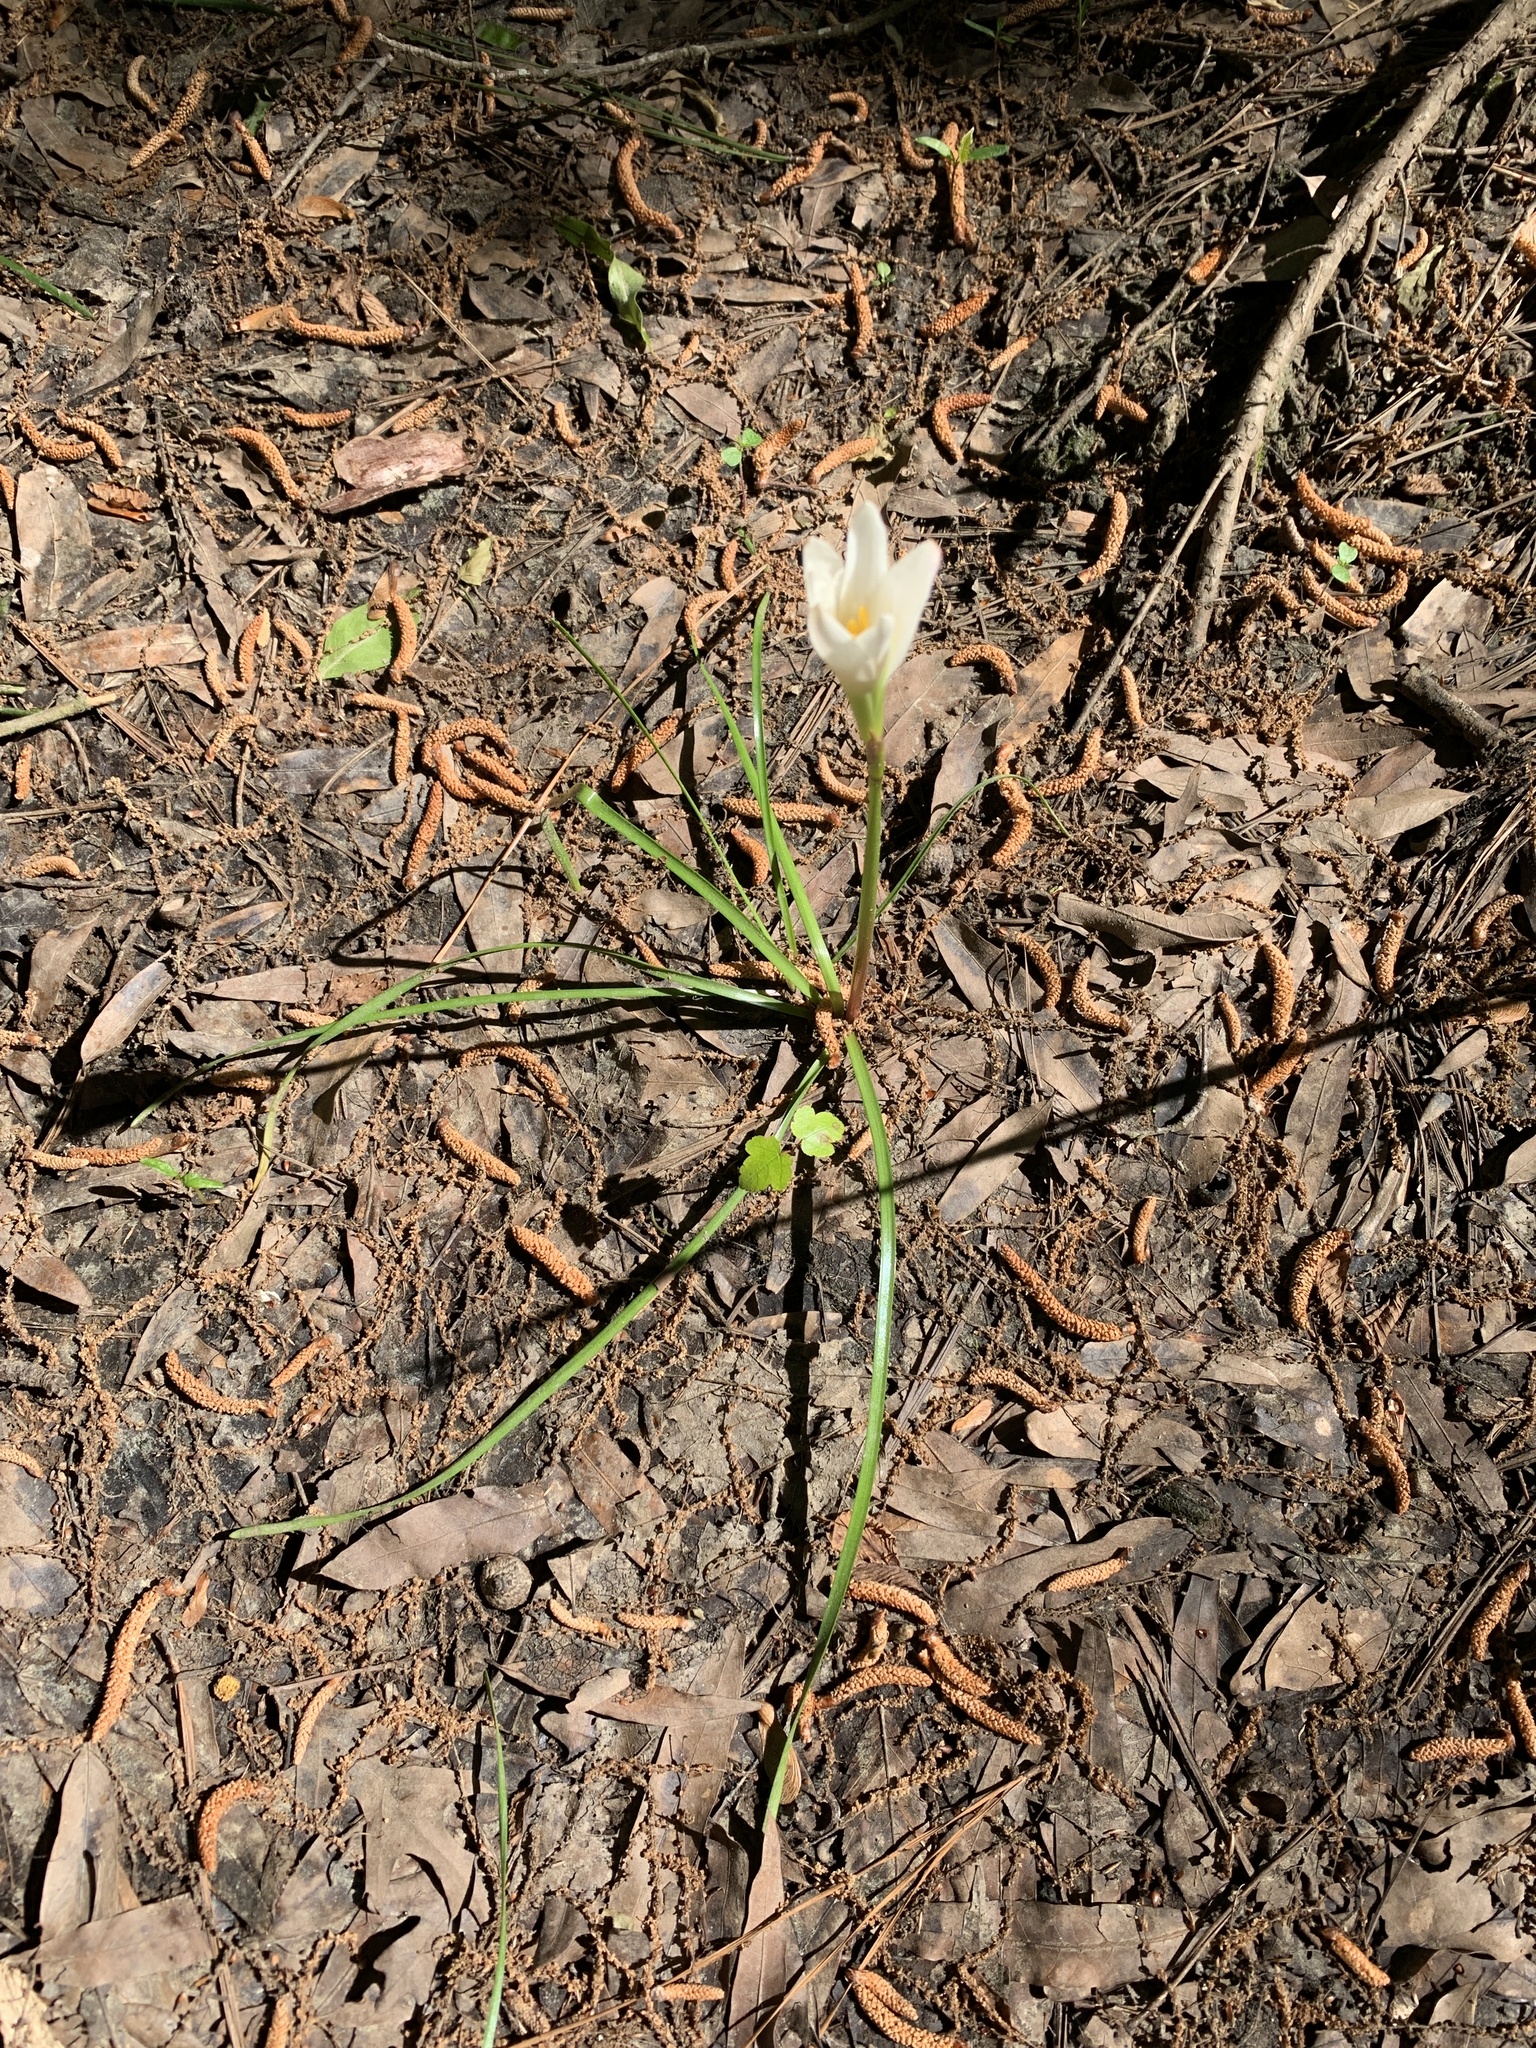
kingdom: Plantae
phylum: Tracheophyta
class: Liliopsida
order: Asparagales
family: Amaryllidaceae
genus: Zephyranthes
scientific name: Zephyranthes atamasco
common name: Atamasco lily
